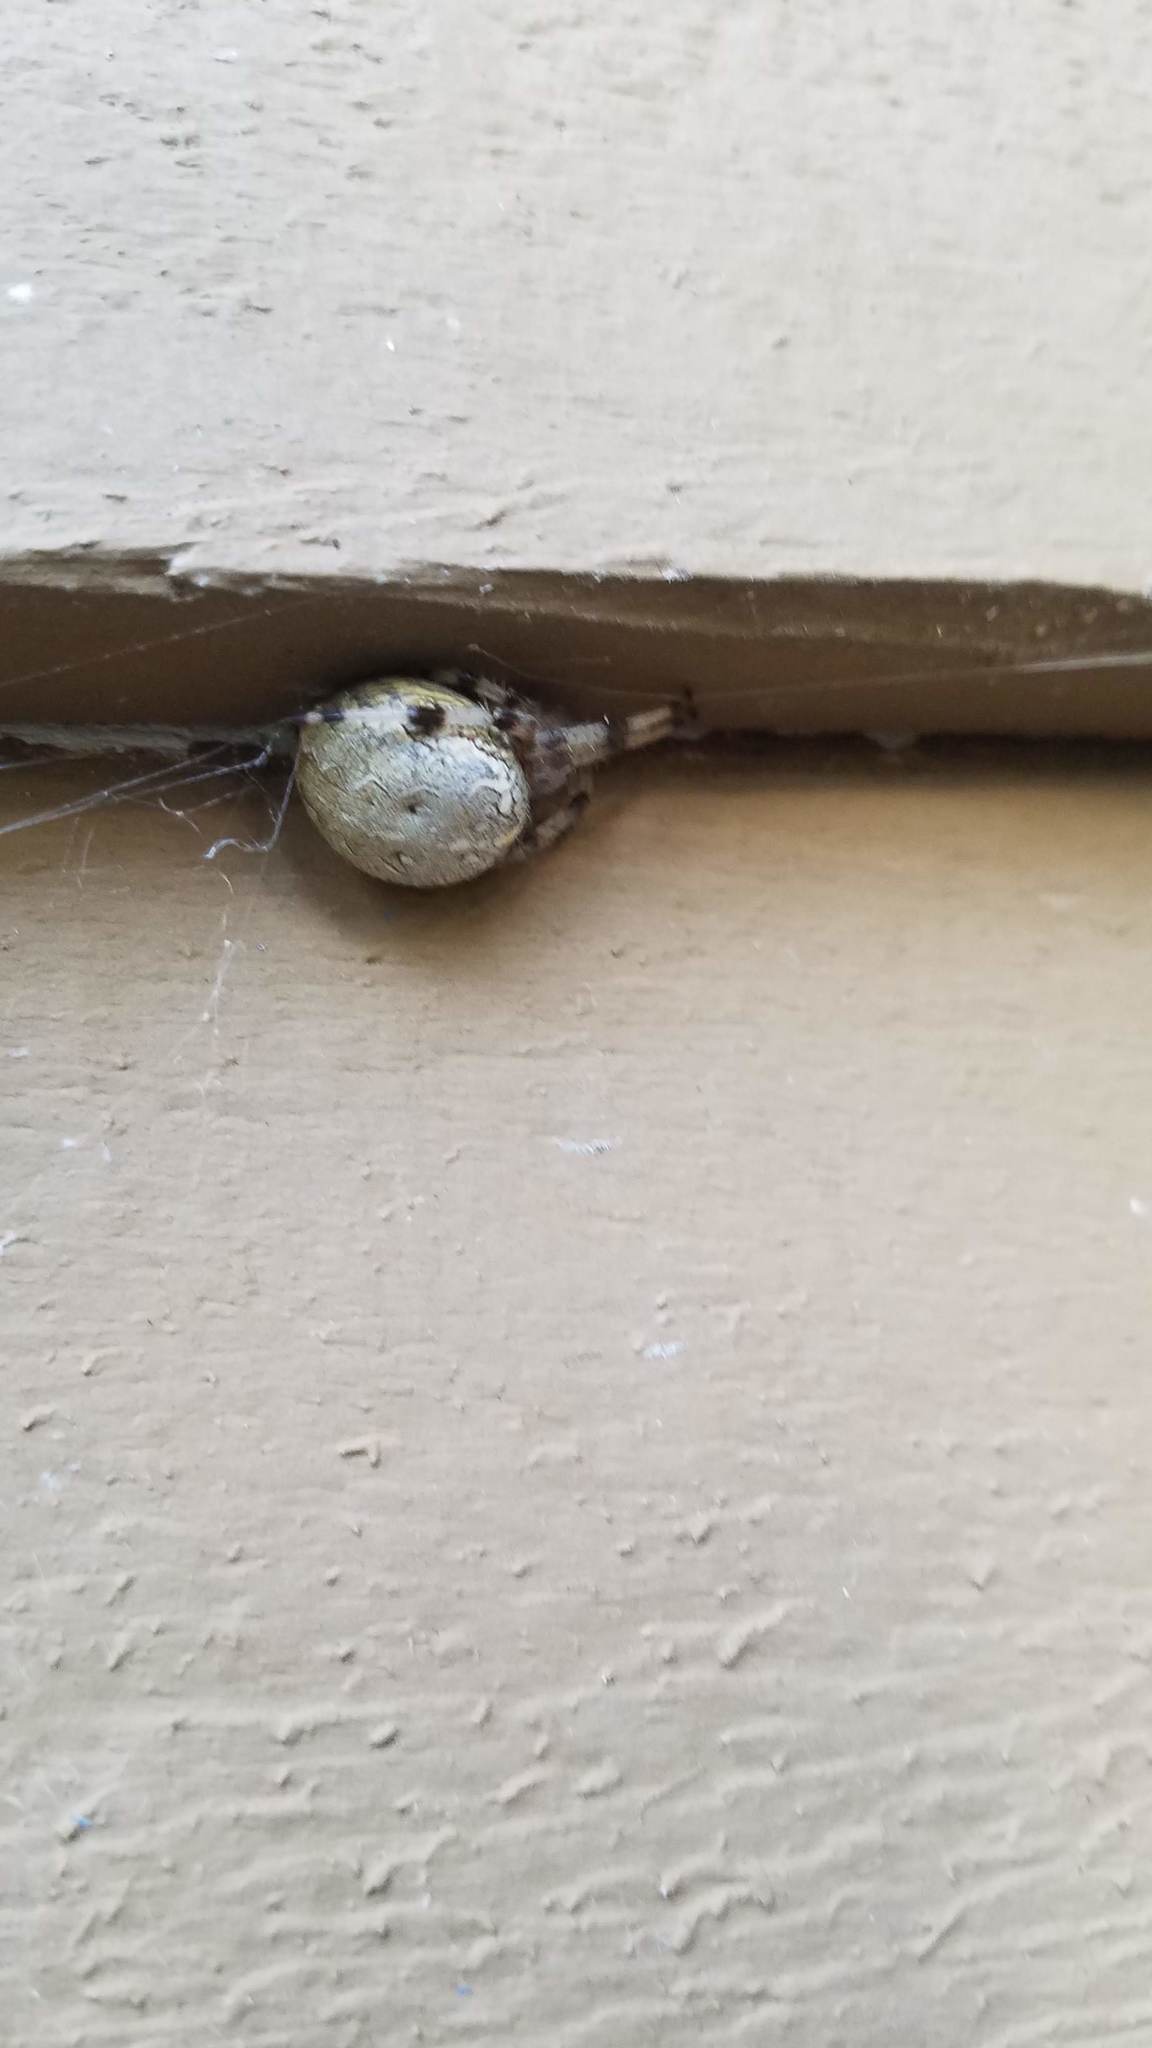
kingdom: Animalia
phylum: Arthropoda
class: Arachnida
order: Araneae
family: Araneidae
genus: Araneus
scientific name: Araneus marmoreus
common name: Marbled orbweaver
